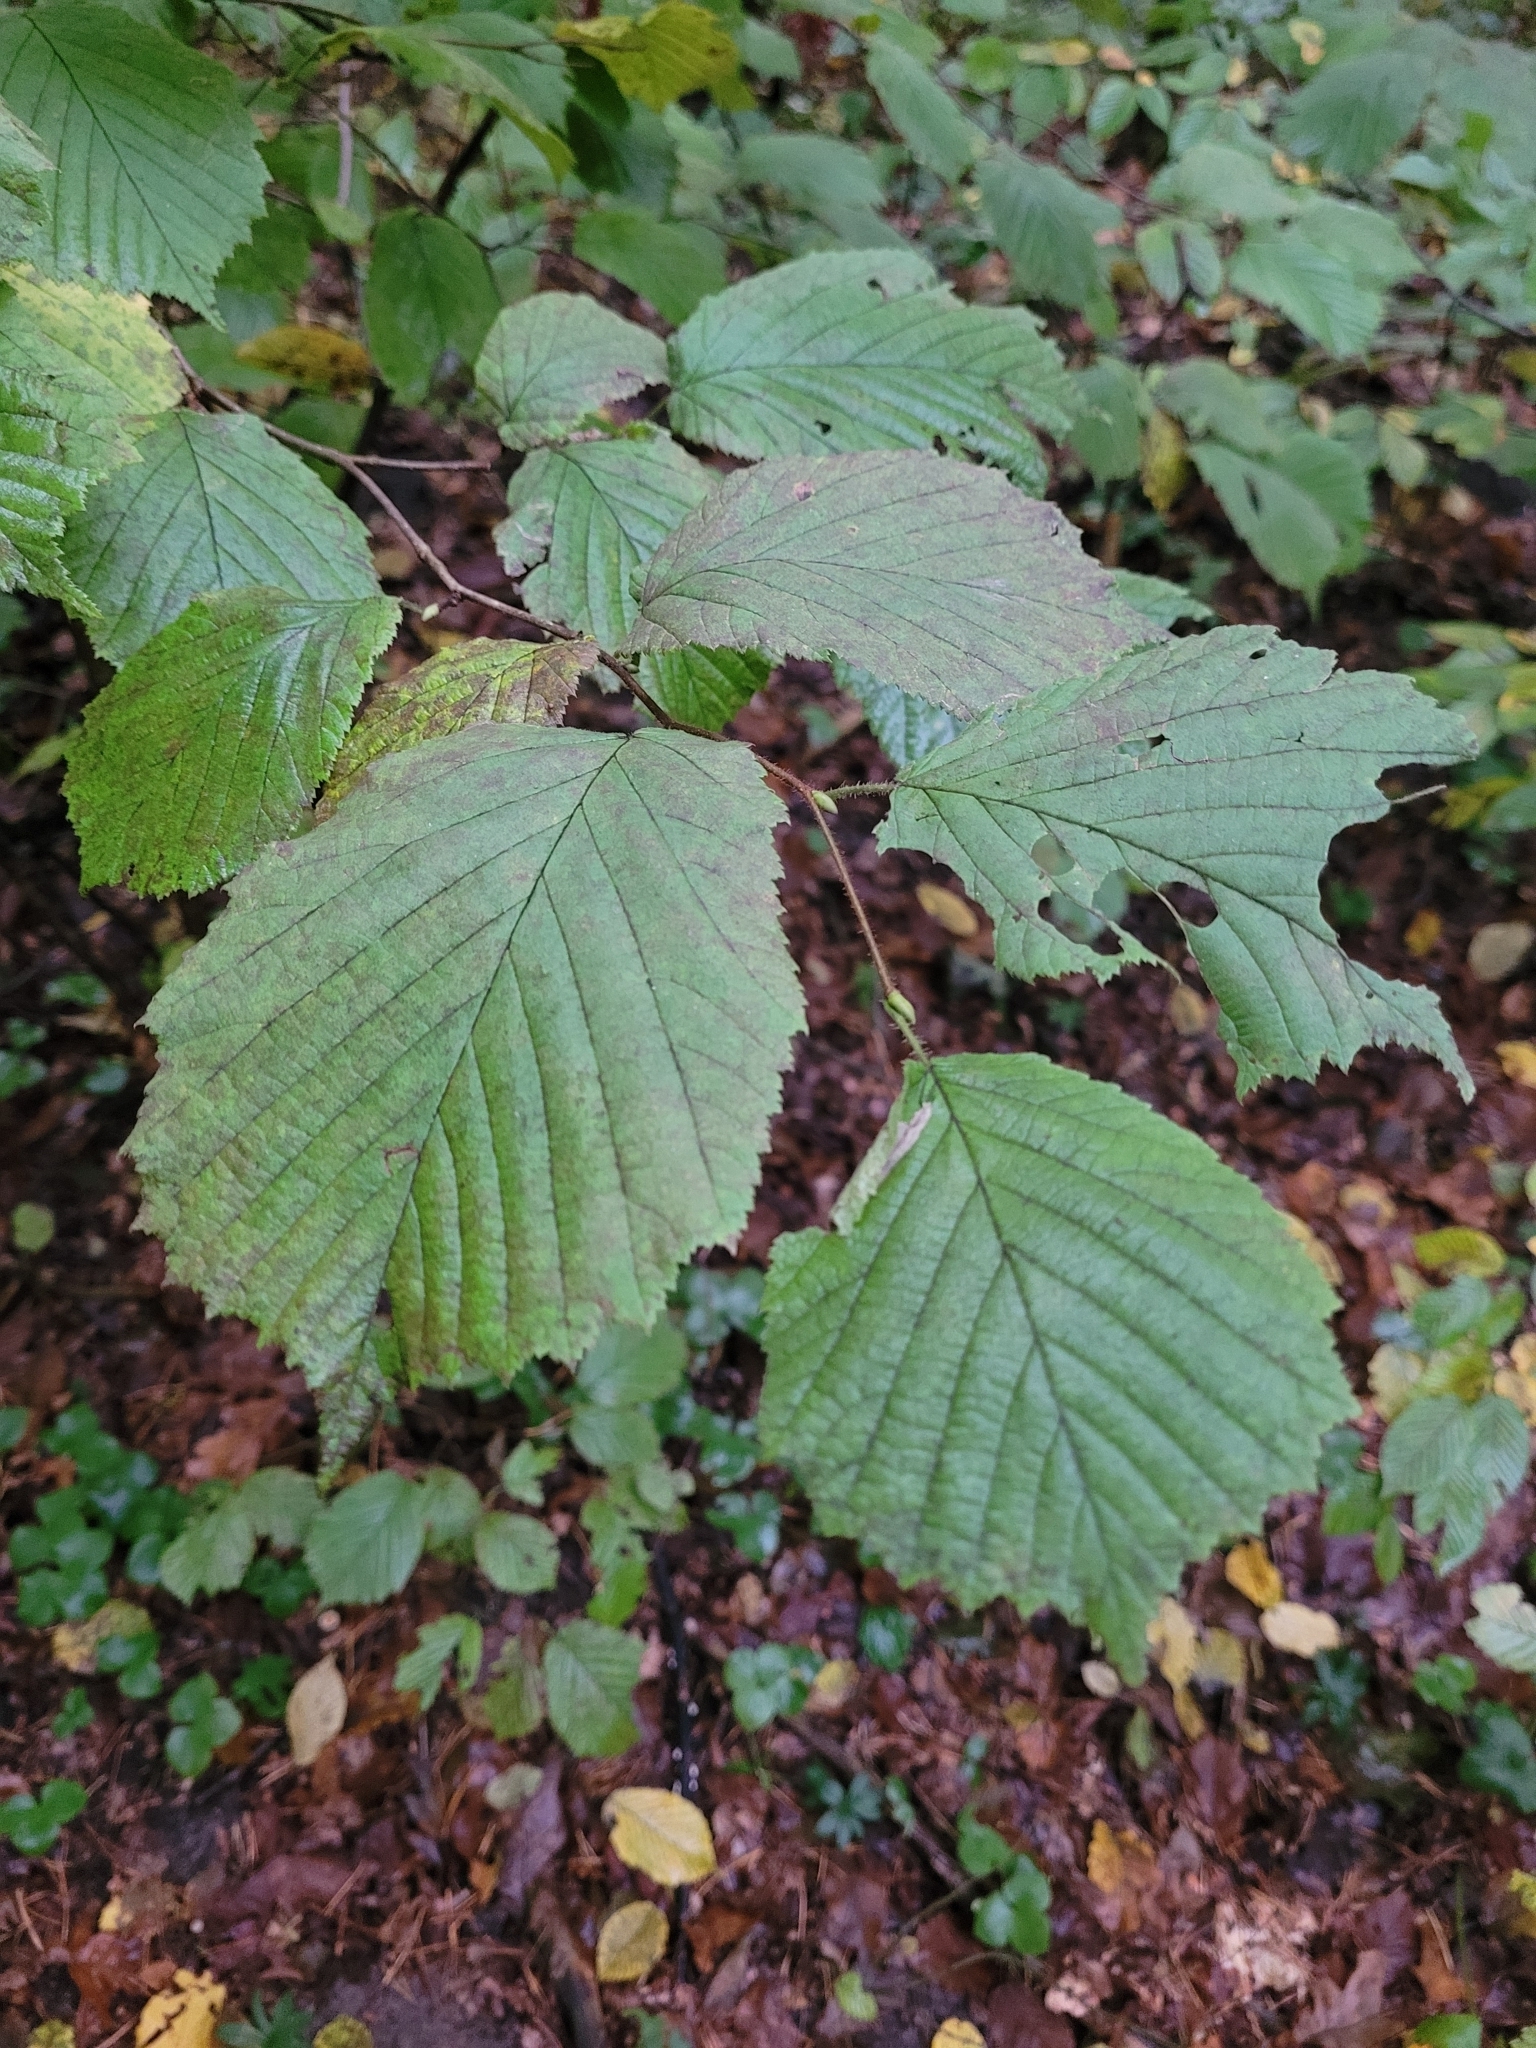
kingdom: Plantae
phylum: Tracheophyta
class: Magnoliopsida
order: Fagales
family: Betulaceae
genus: Corylus
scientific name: Corylus avellana
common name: European hazel
